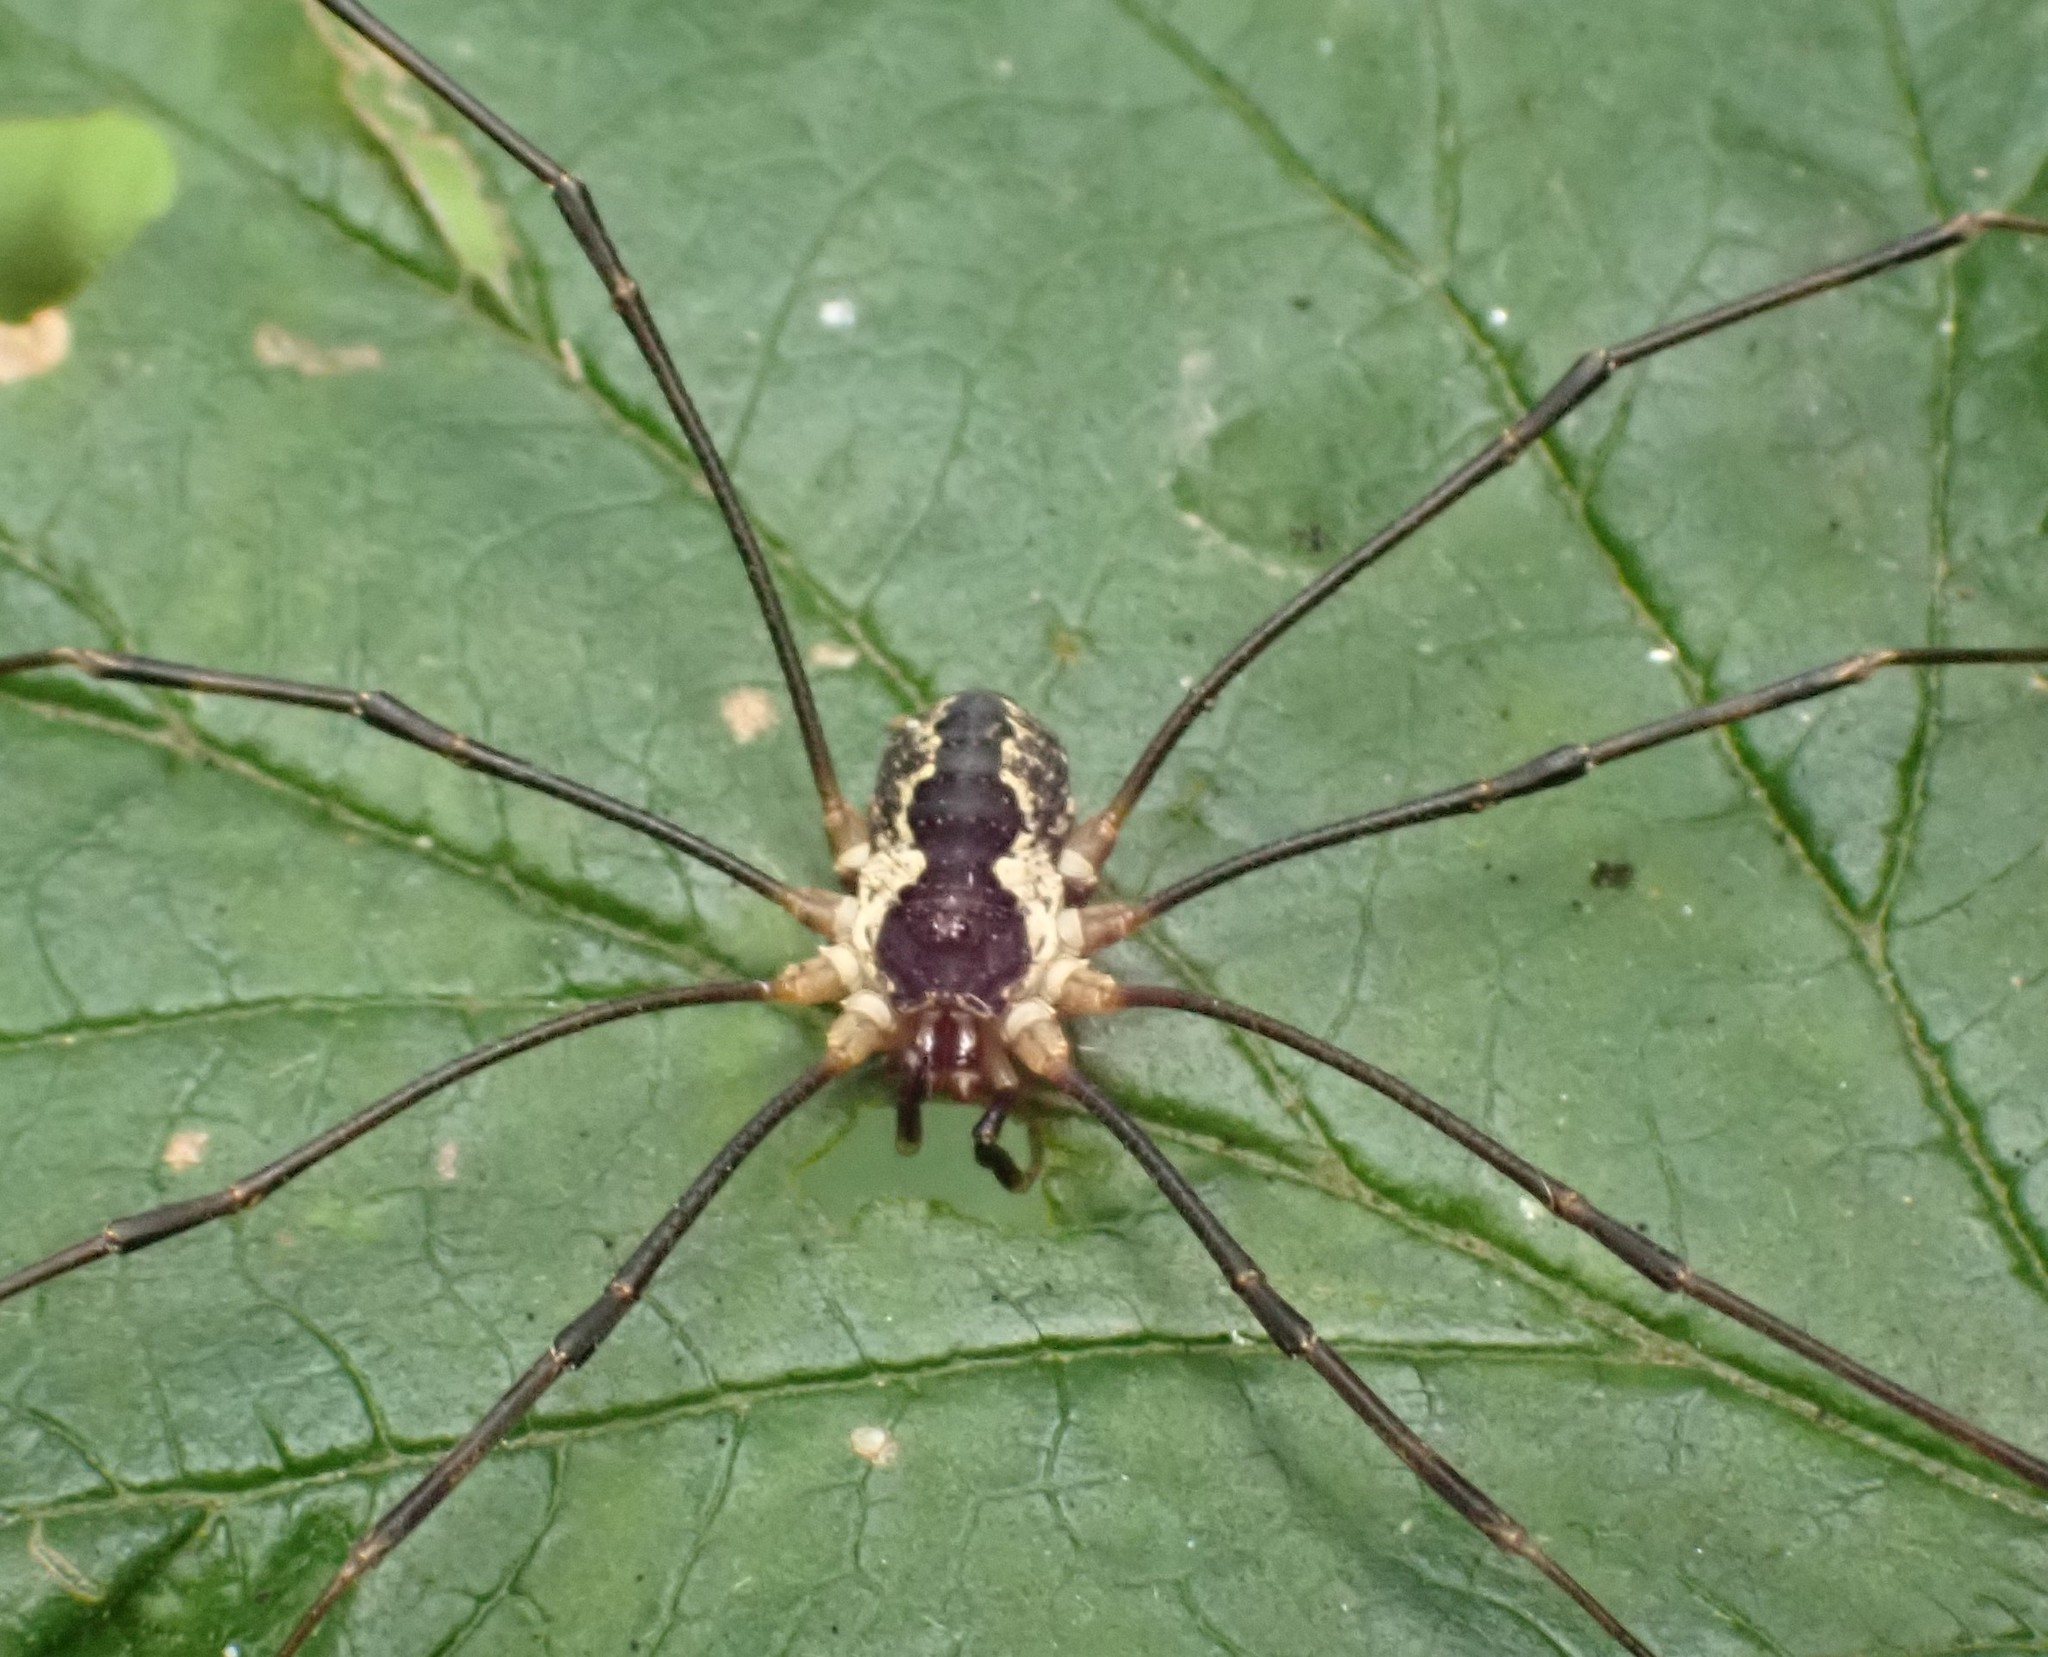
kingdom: Animalia
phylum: Arthropoda
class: Arachnida
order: Opiliones
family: Phalangiidae
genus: Mitopus
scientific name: Mitopus morio
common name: Saddleback harvestman
